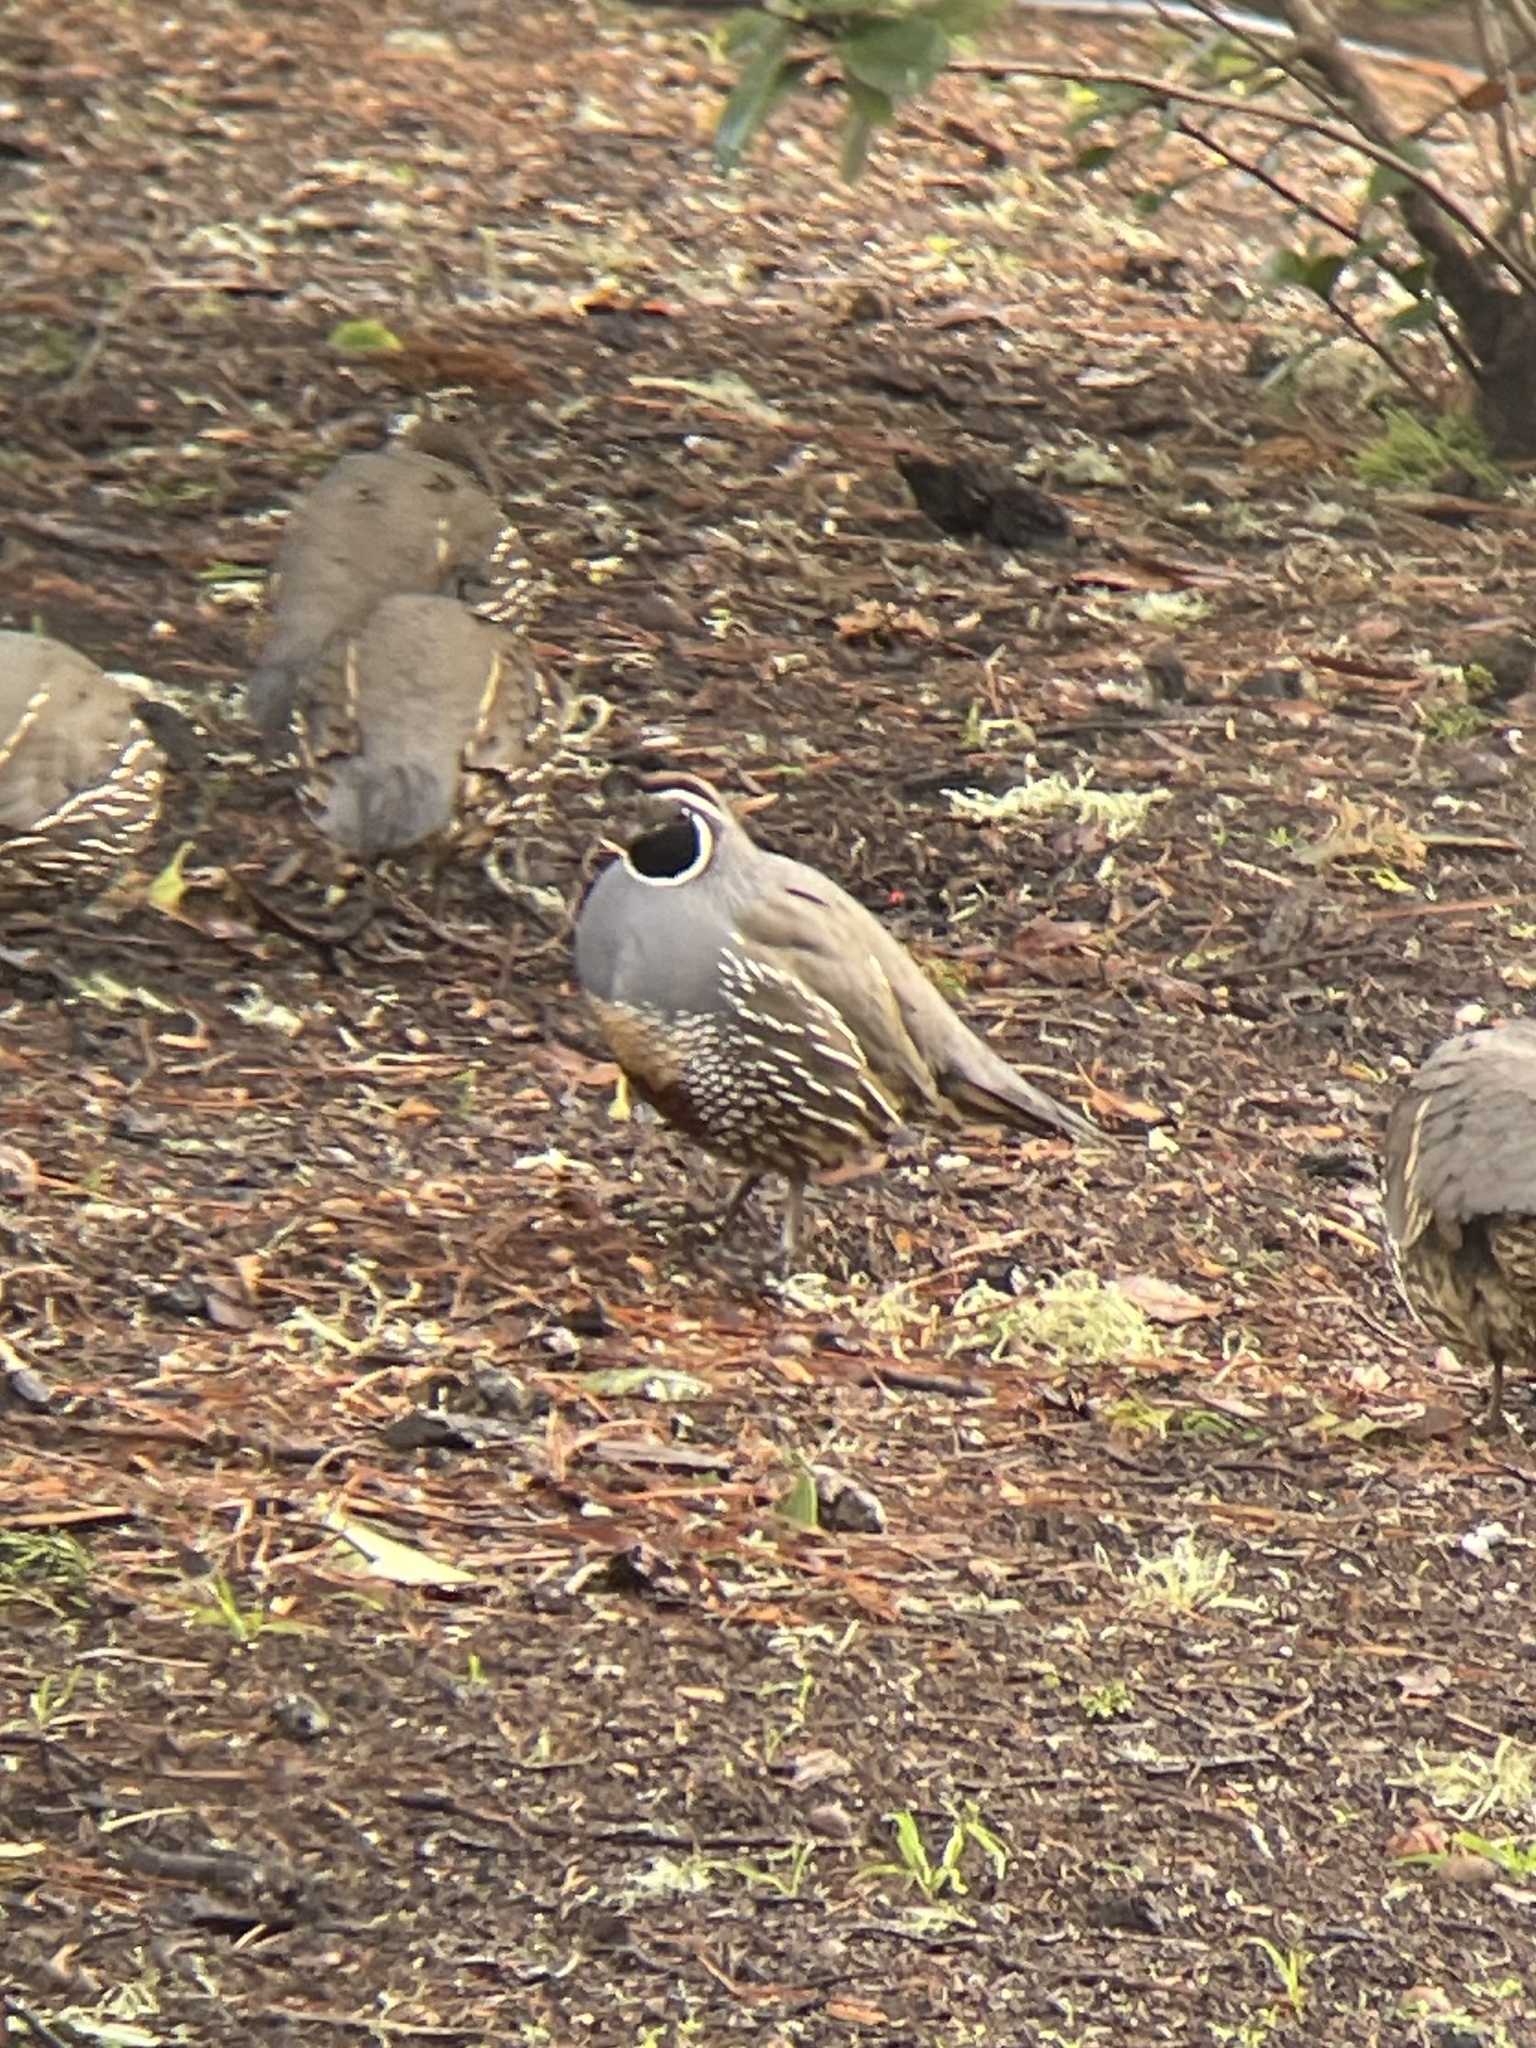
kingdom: Animalia
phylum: Chordata
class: Aves
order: Galliformes
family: Odontophoridae
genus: Callipepla
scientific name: Callipepla californica
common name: California quail
